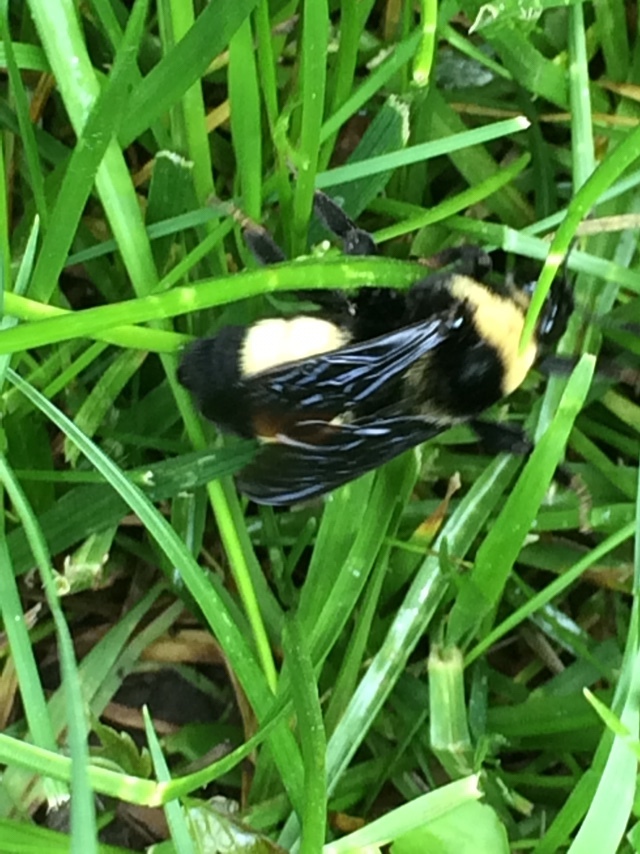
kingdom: Animalia
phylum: Arthropoda
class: Insecta
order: Hymenoptera
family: Apidae
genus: Bombus
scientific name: Bombus auricomus
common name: Black and gold bumble bee
